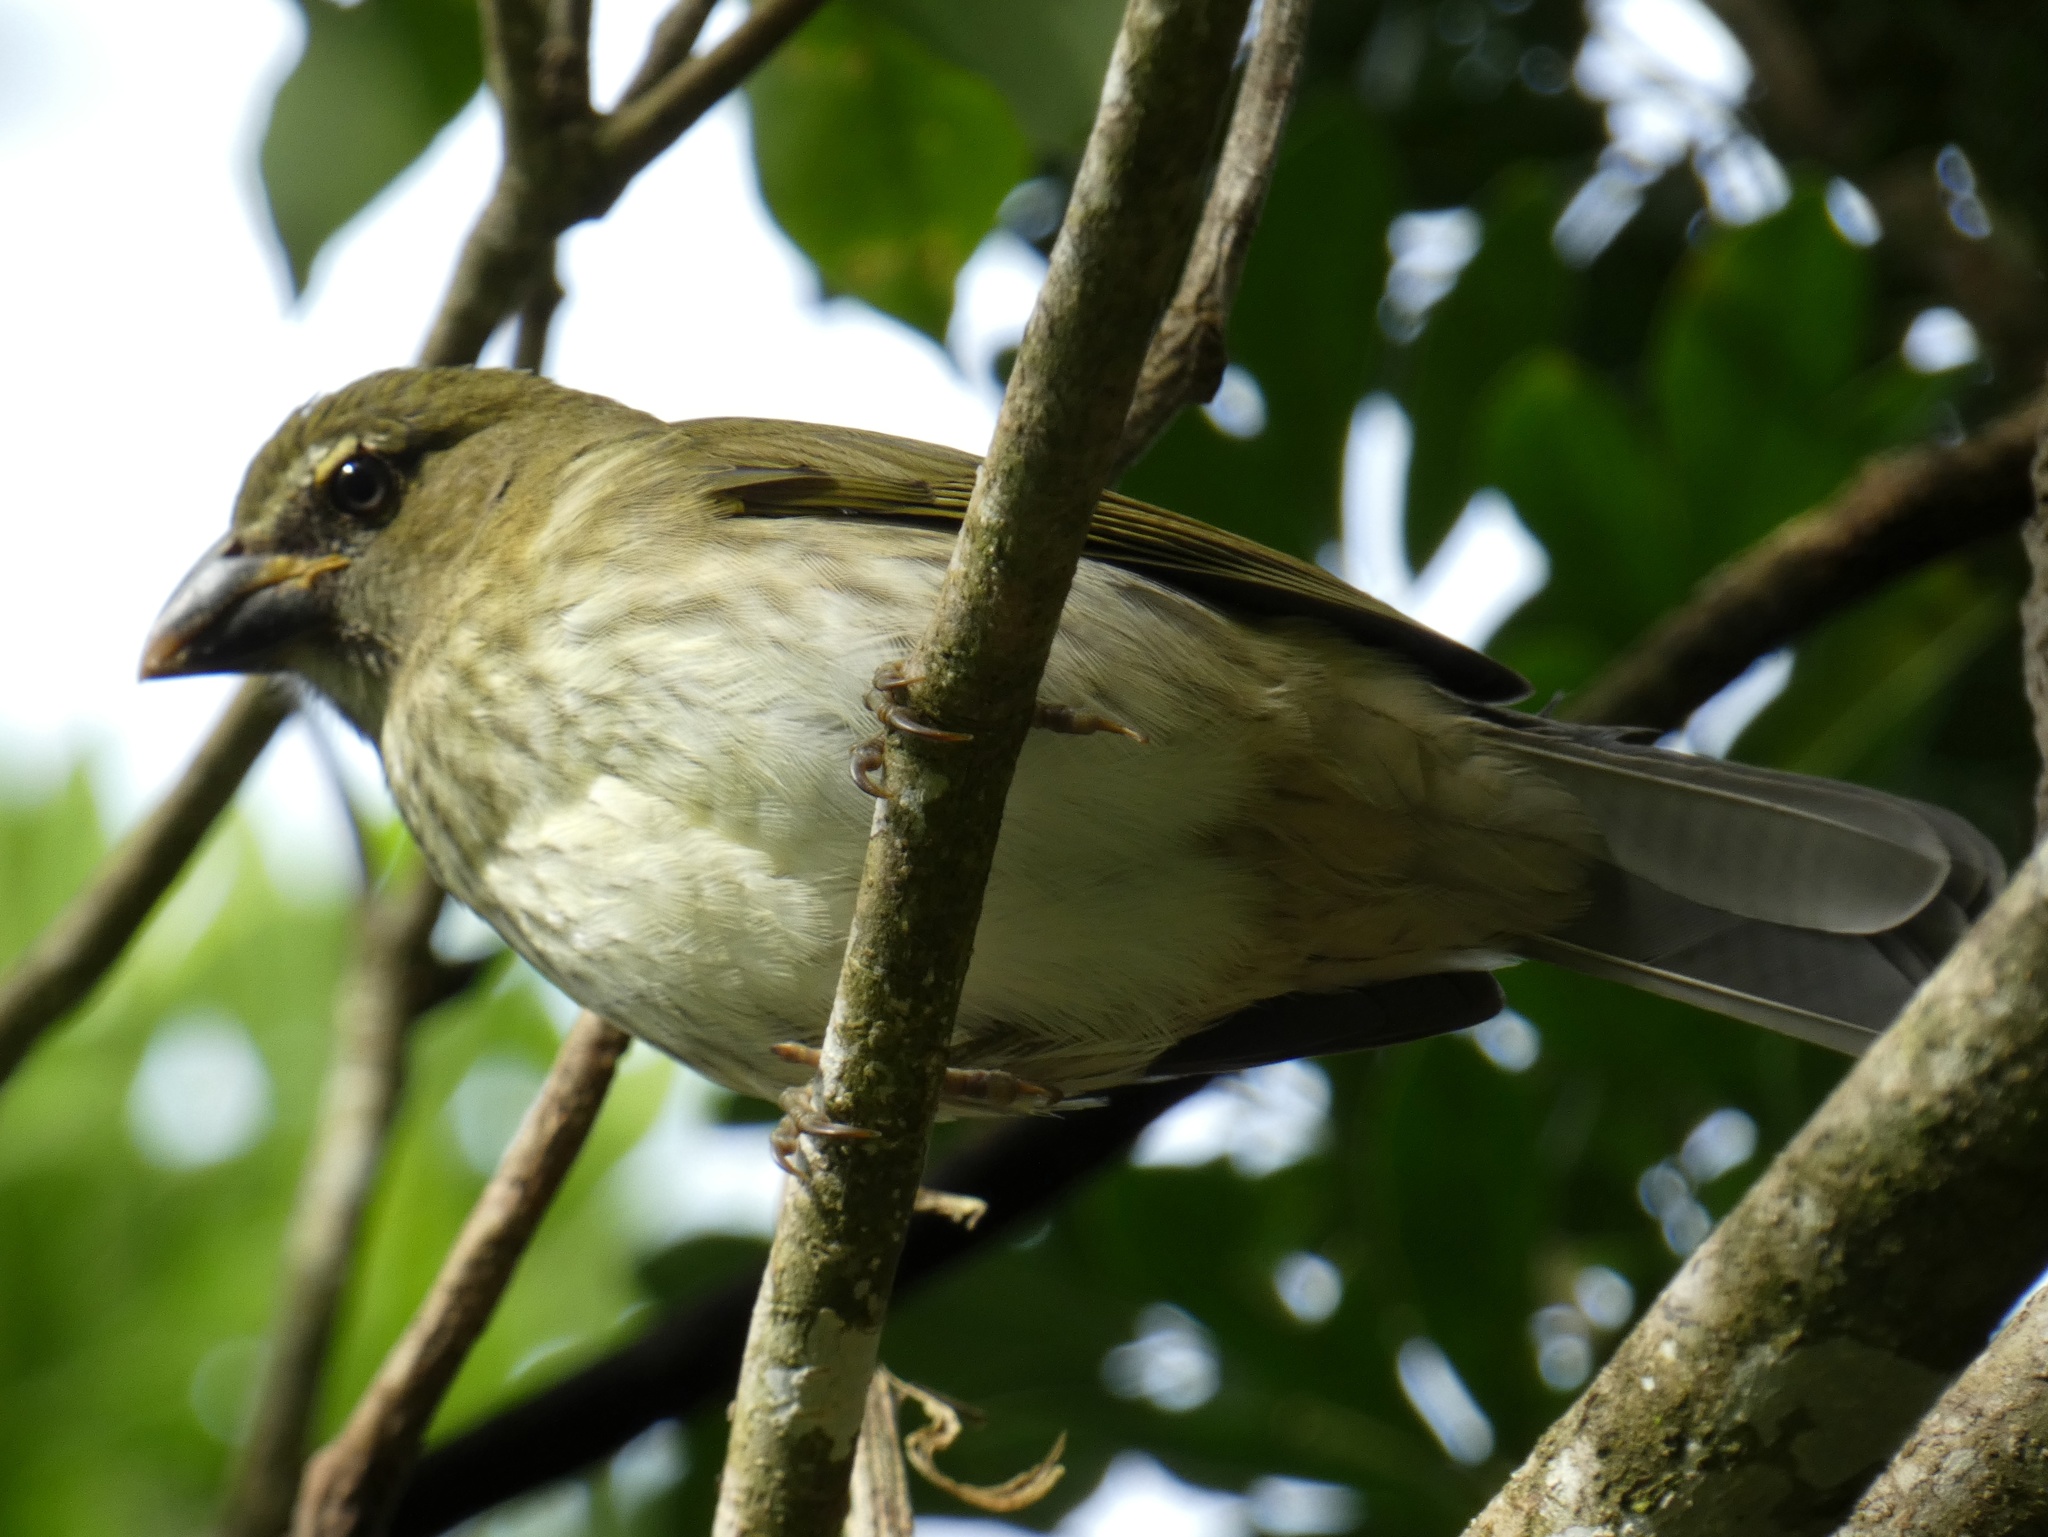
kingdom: Animalia
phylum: Chordata
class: Aves
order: Passeriformes
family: Thraupidae
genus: Saltator
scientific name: Saltator striatipectus
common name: Streaked saltator
